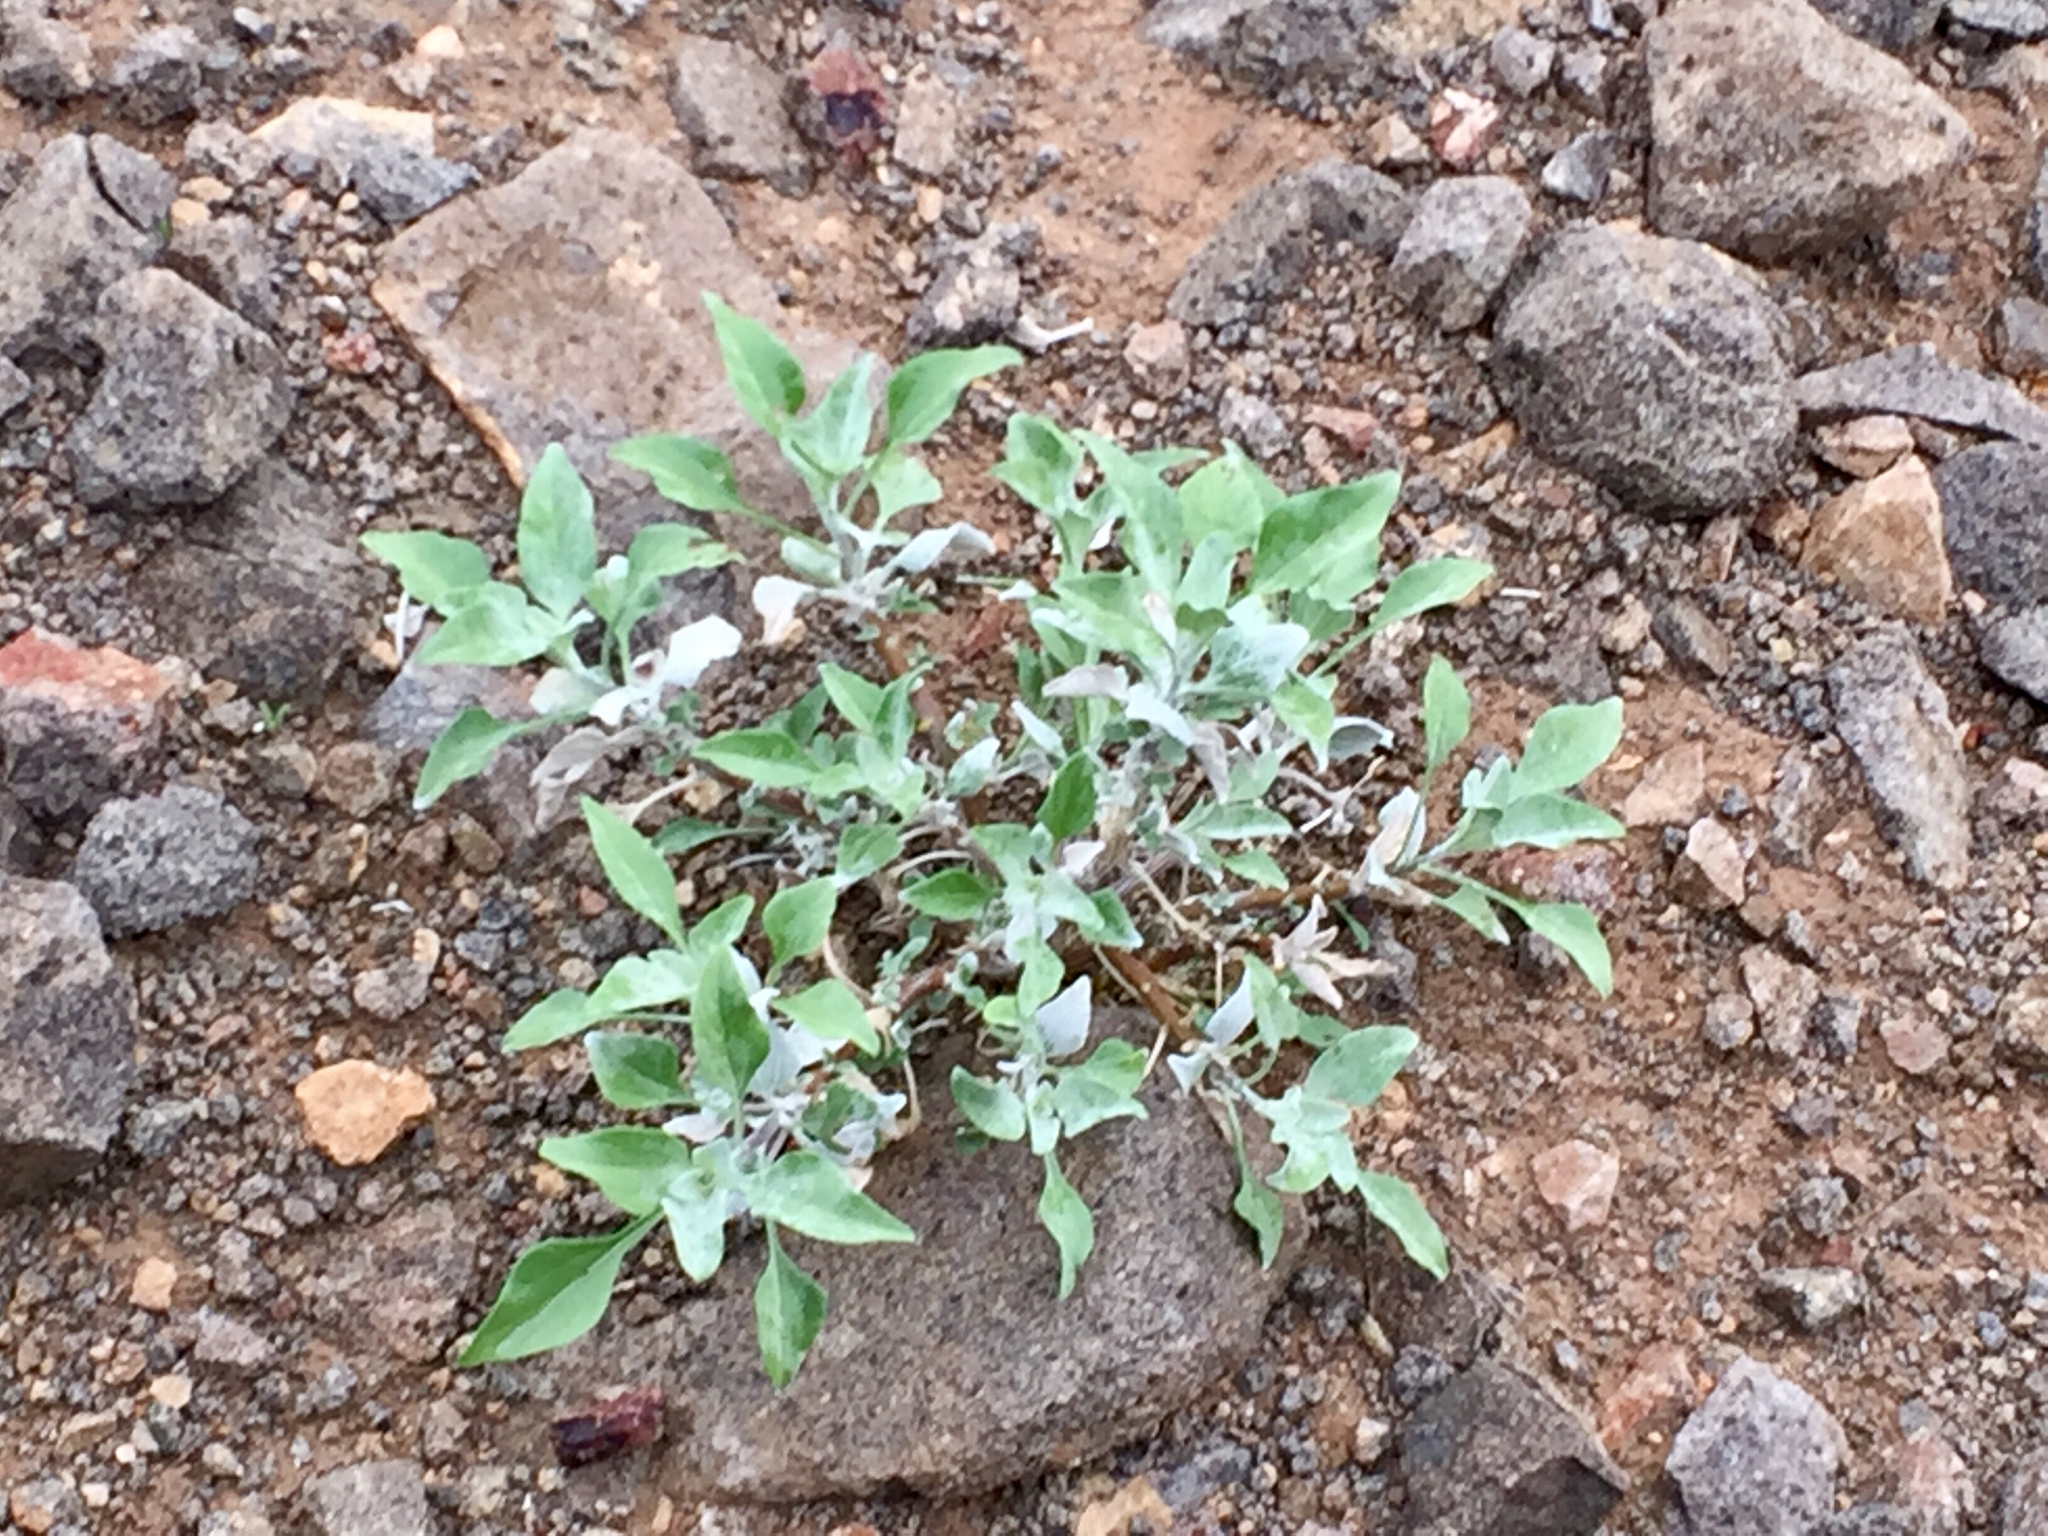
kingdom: Plantae
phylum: Tracheophyta
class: Magnoliopsida
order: Asterales
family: Asteraceae
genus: Encelia
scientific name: Encelia farinosa
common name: Brittlebush
